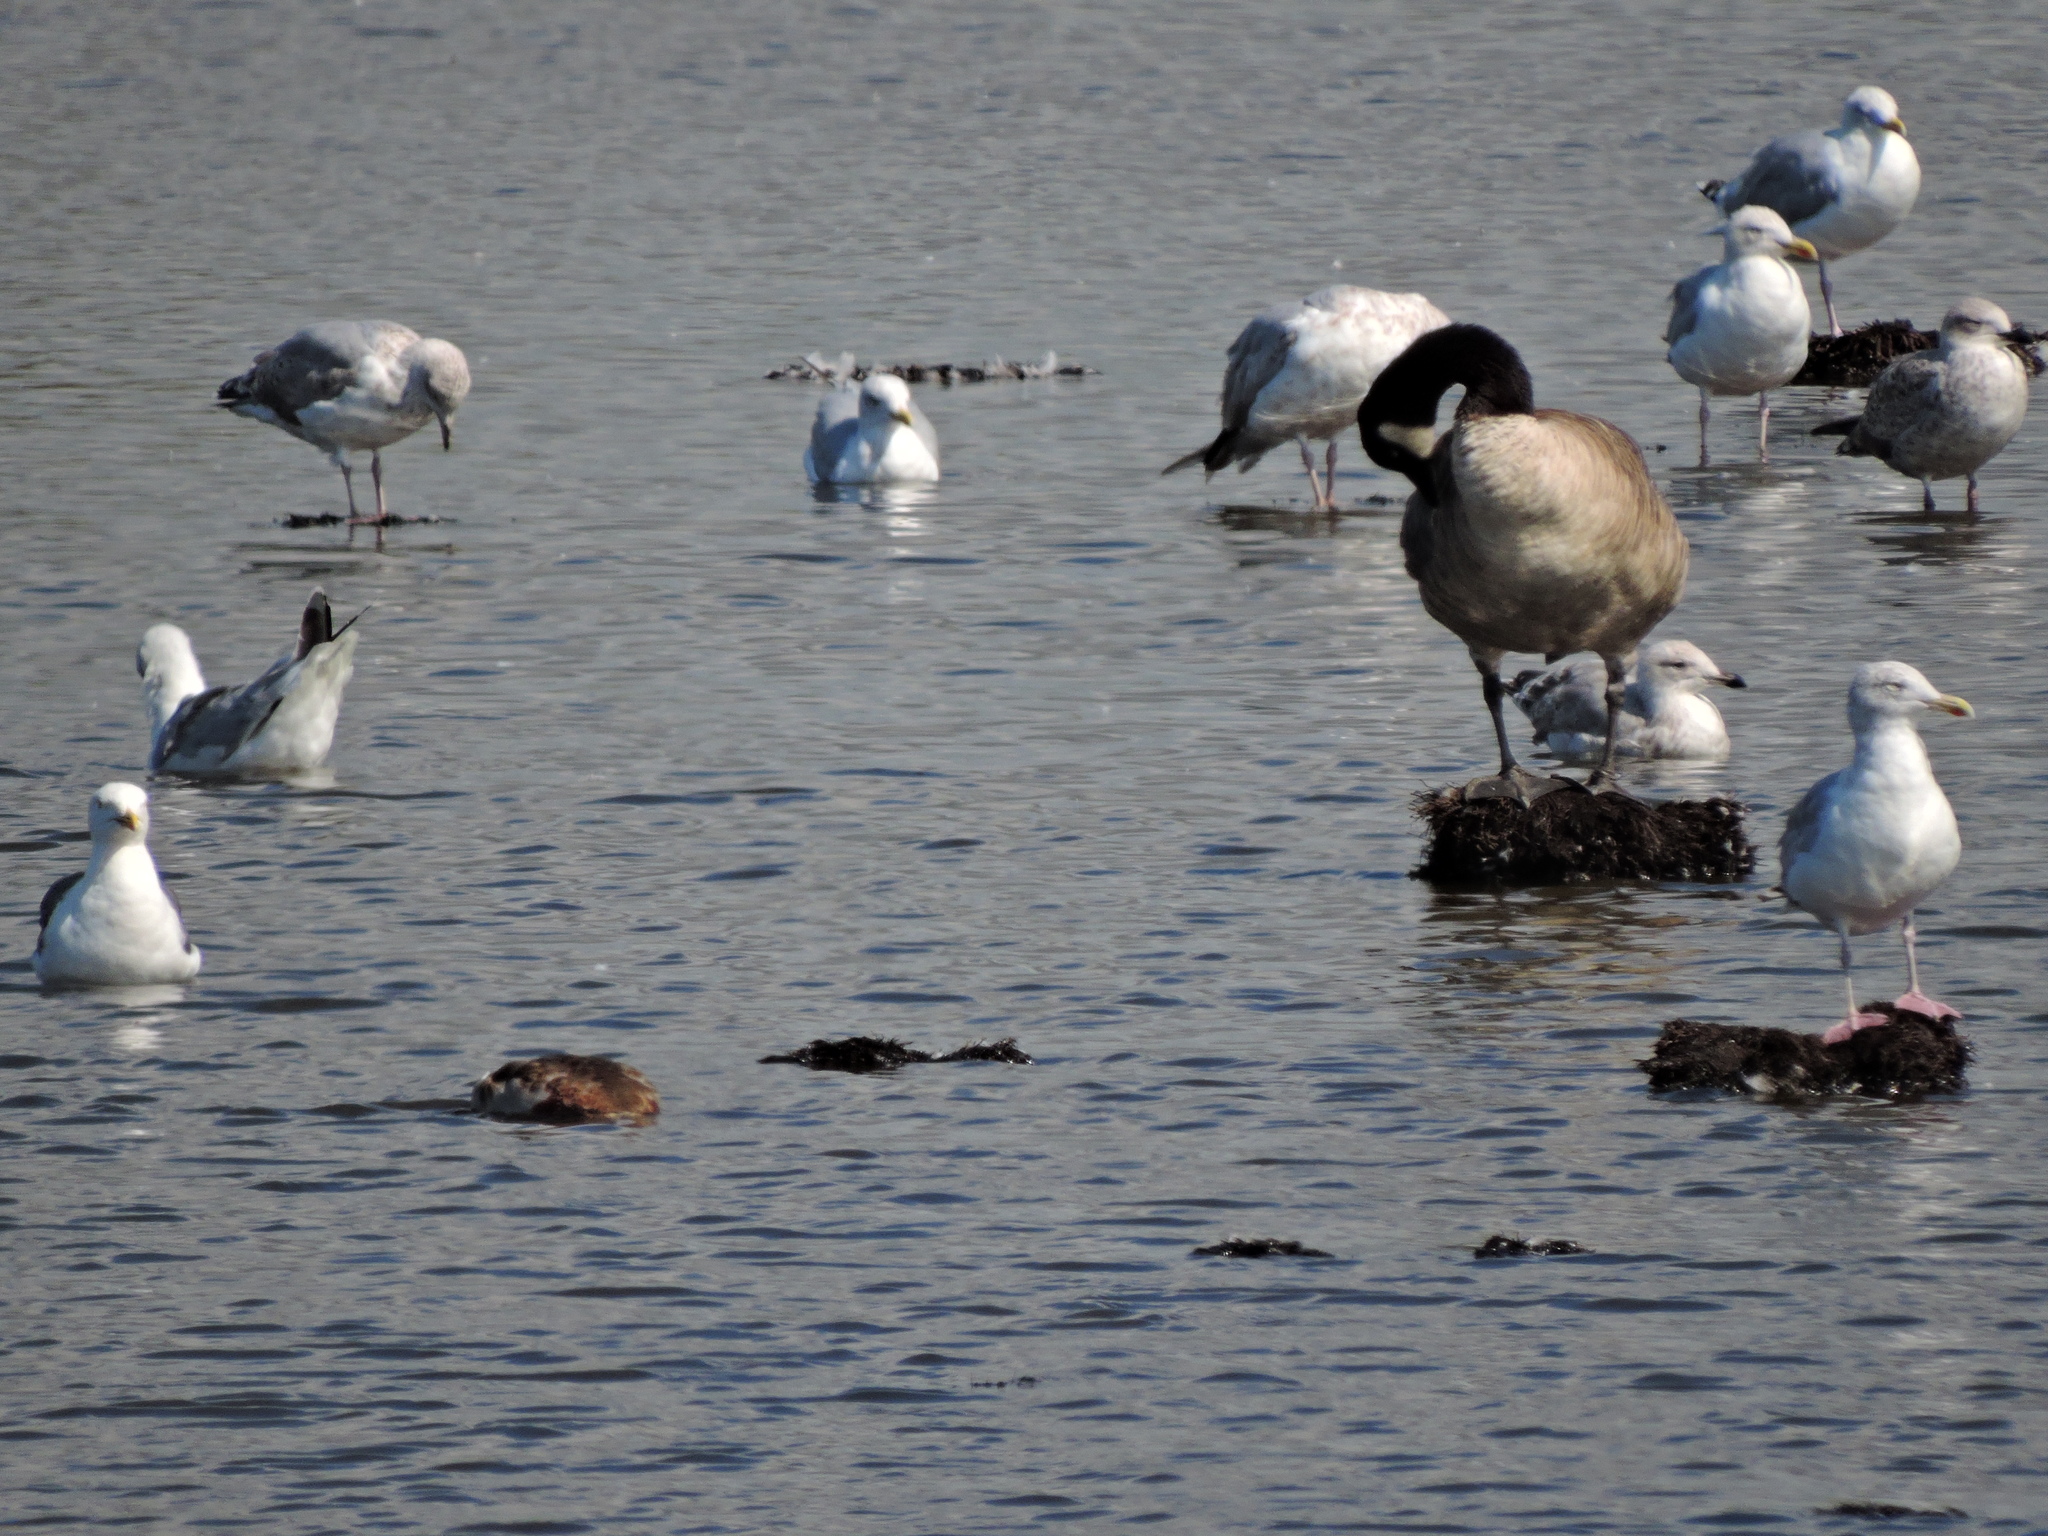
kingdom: Animalia
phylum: Chordata
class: Aves
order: Charadriiformes
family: Laridae
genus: Larus
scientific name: Larus argentatus
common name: Herring gull
